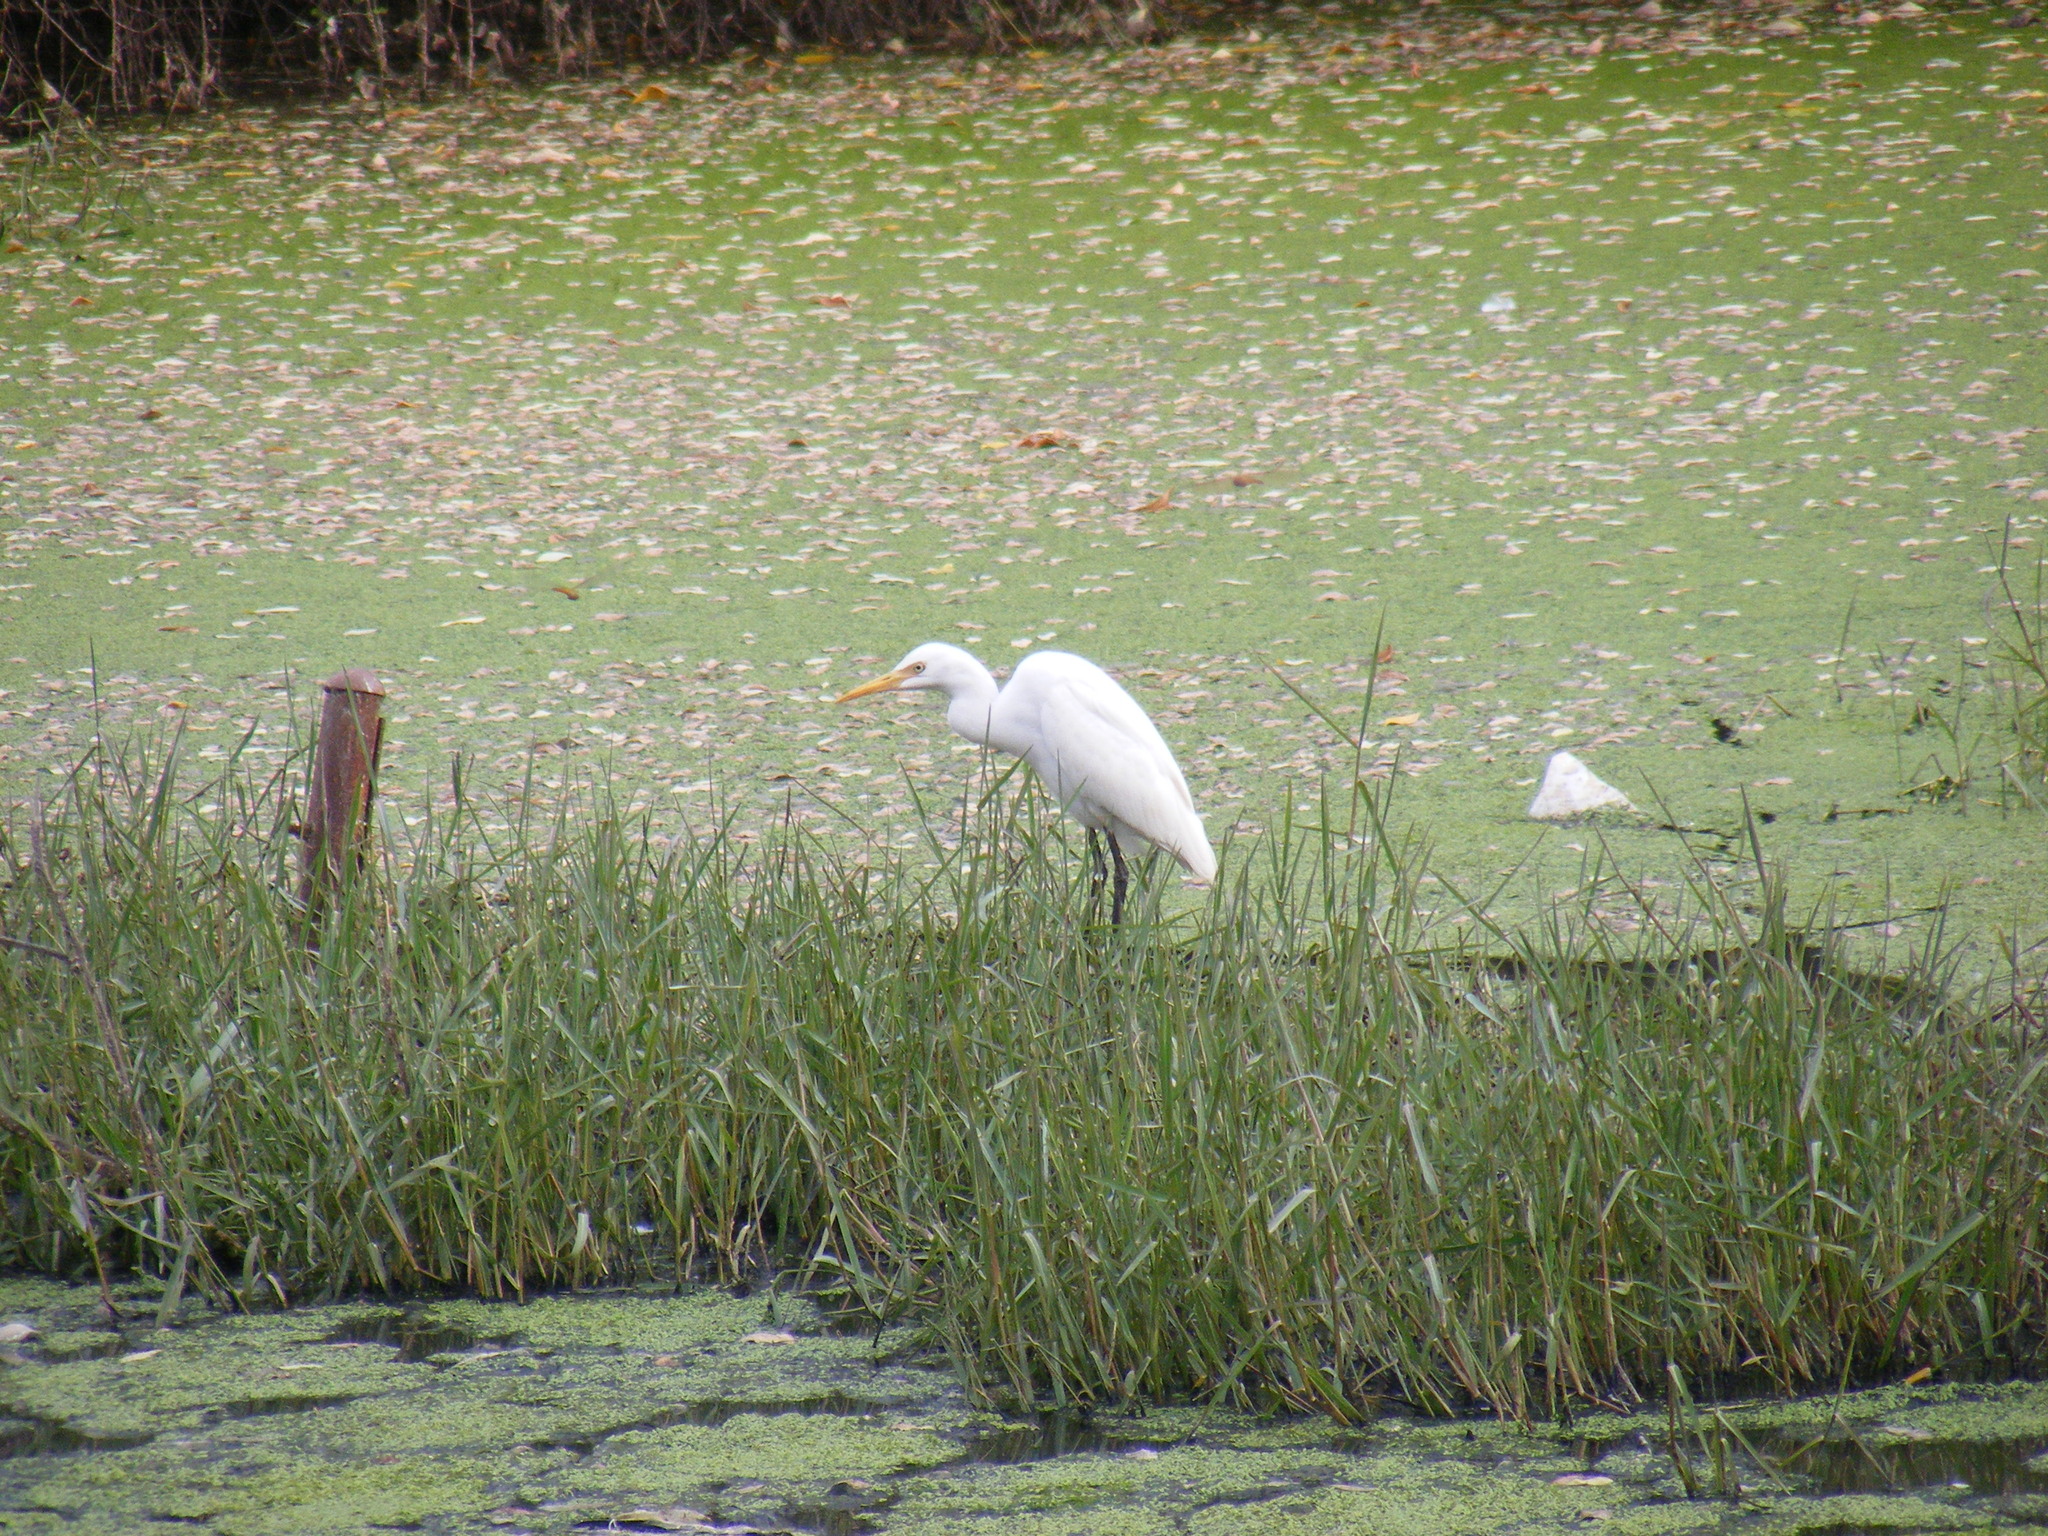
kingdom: Animalia
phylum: Chordata
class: Aves
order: Pelecaniformes
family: Ardeidae
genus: Egretta
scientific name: Egretta intermedia
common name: Intermediate egret
